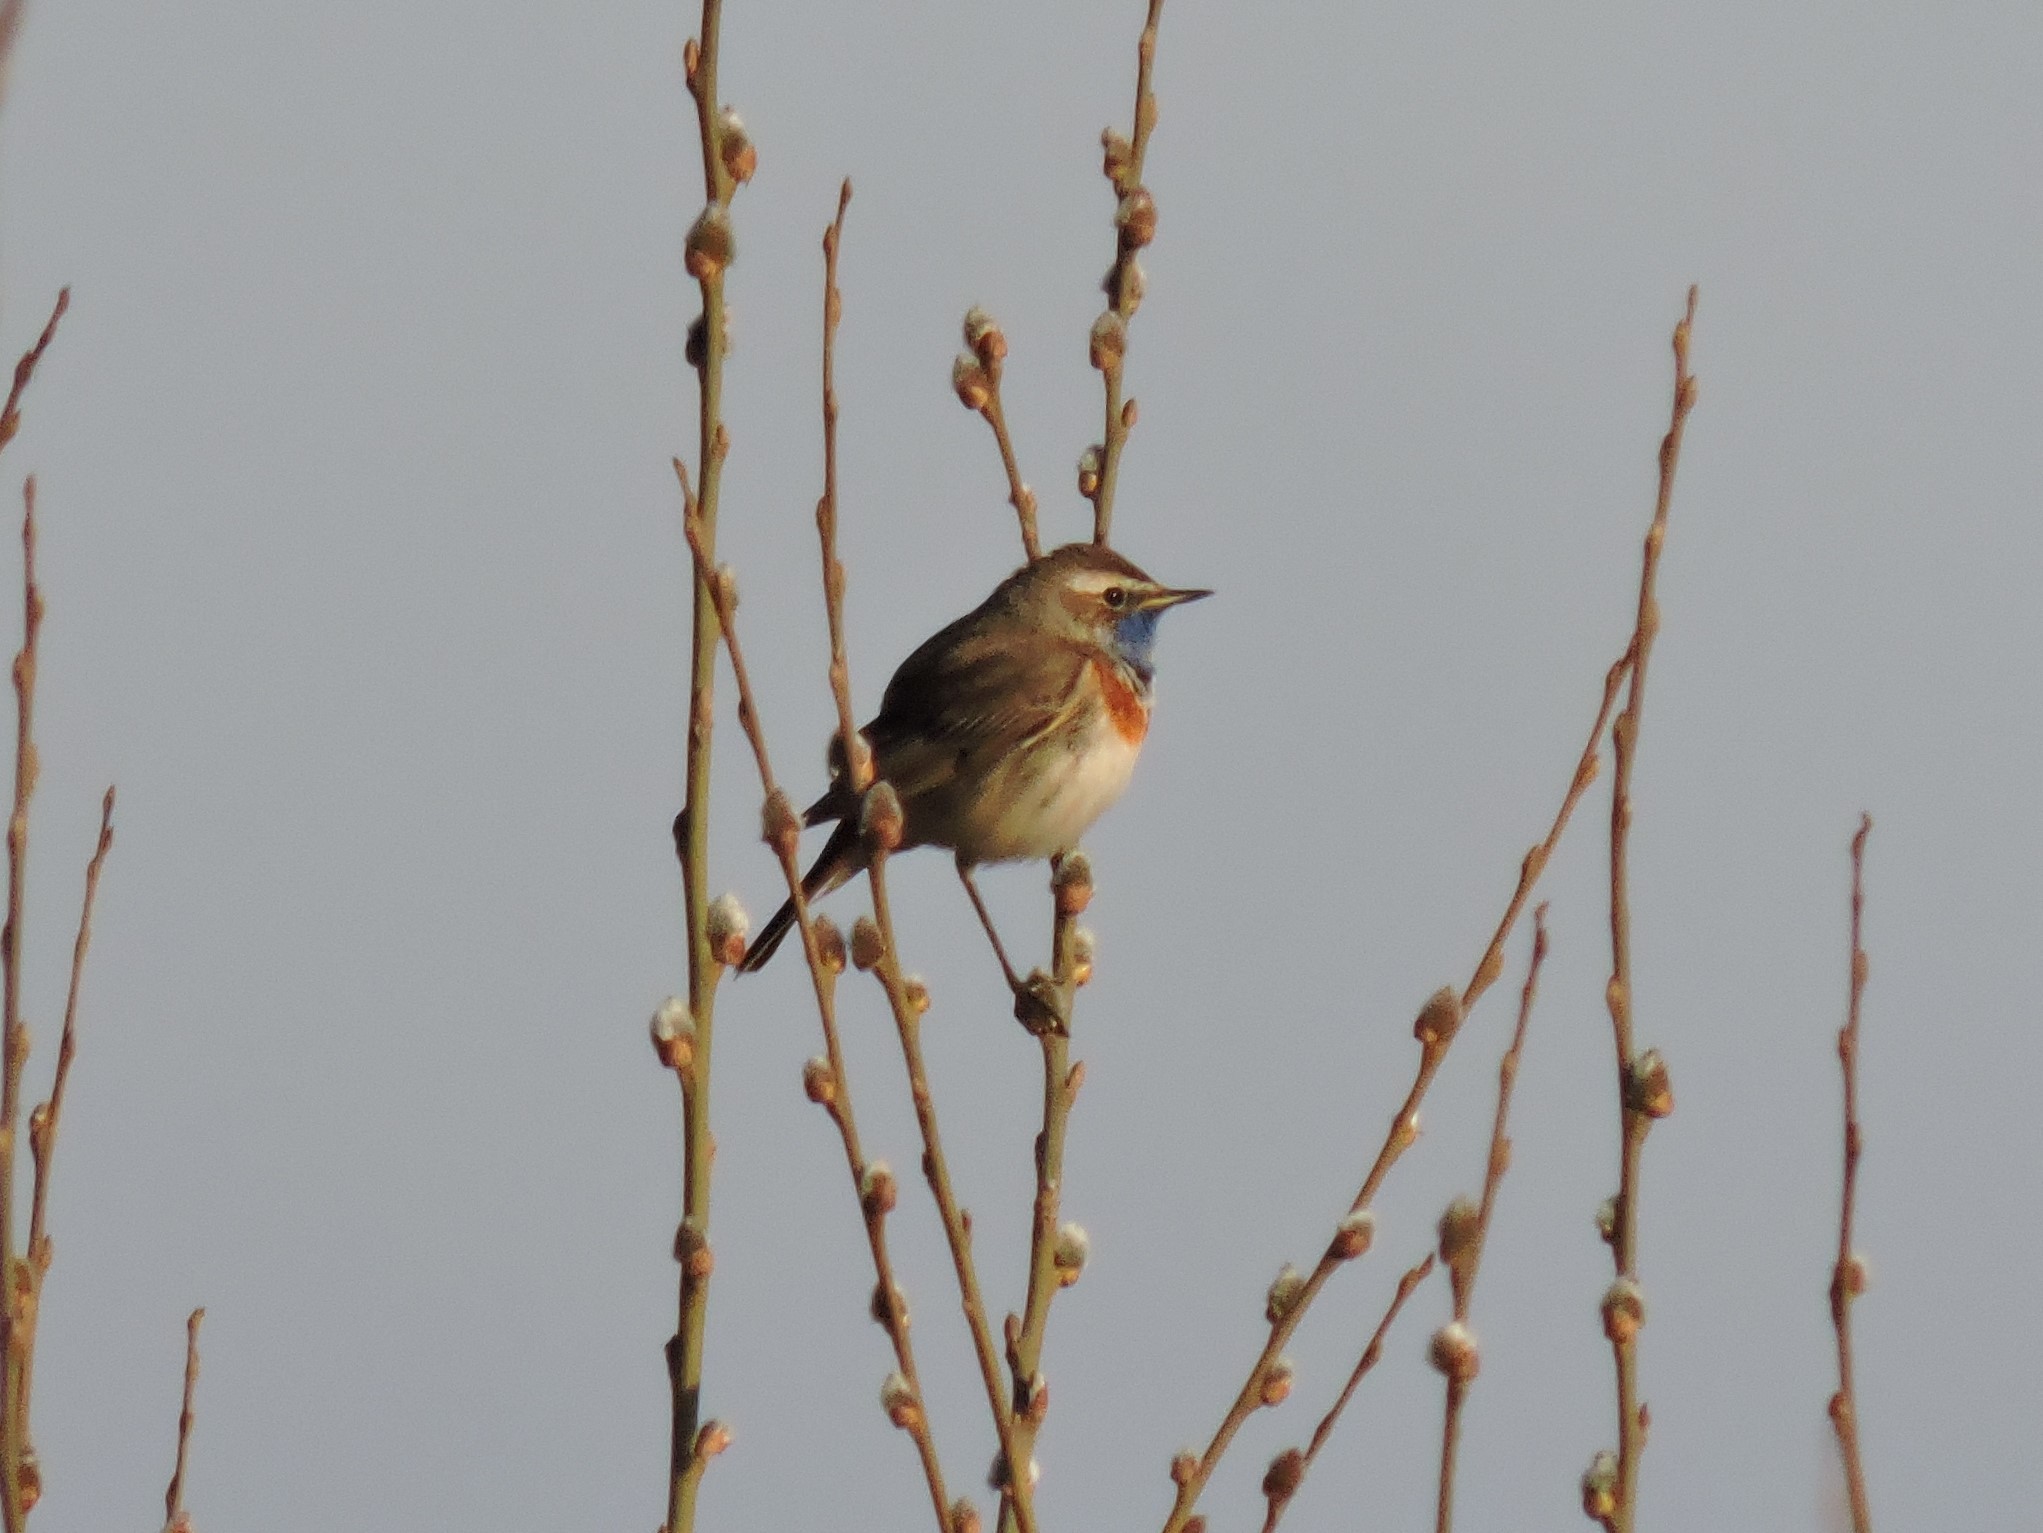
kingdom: Animalia
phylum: Chordata
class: Aves
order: Passeriformes
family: Muscicapidae
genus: Luscinia
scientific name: Luscinia svecica
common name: Bluethroat
